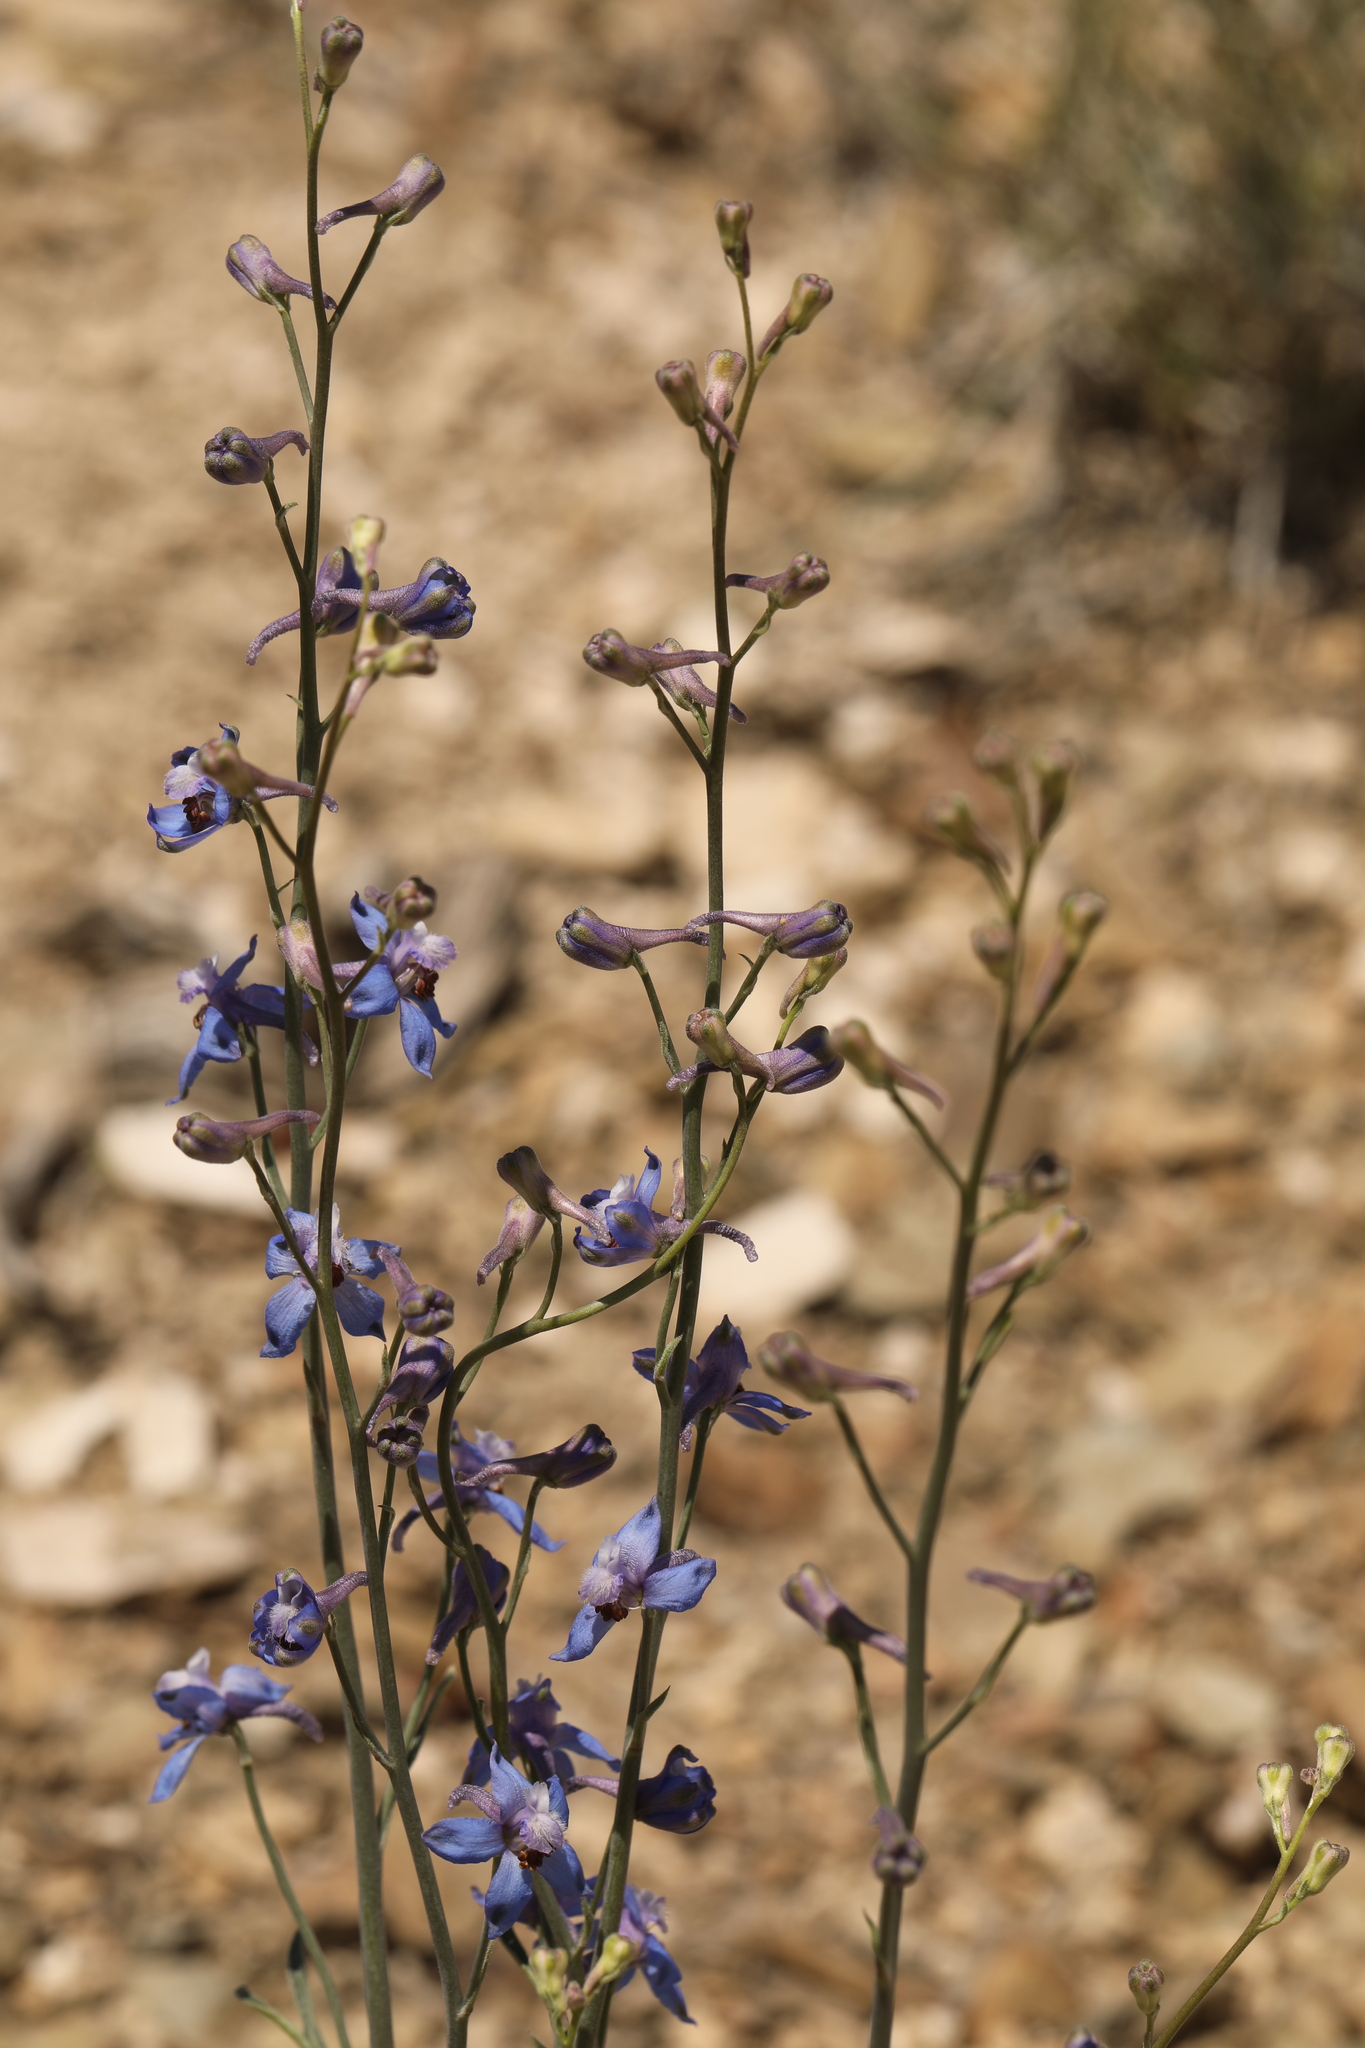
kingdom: Plantae
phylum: Tracheophyta
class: Magnoliopsida
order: Ranunculales
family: Ranunculaceae
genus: Delphinium
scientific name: Delphinium parishii
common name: Apache larkspur
